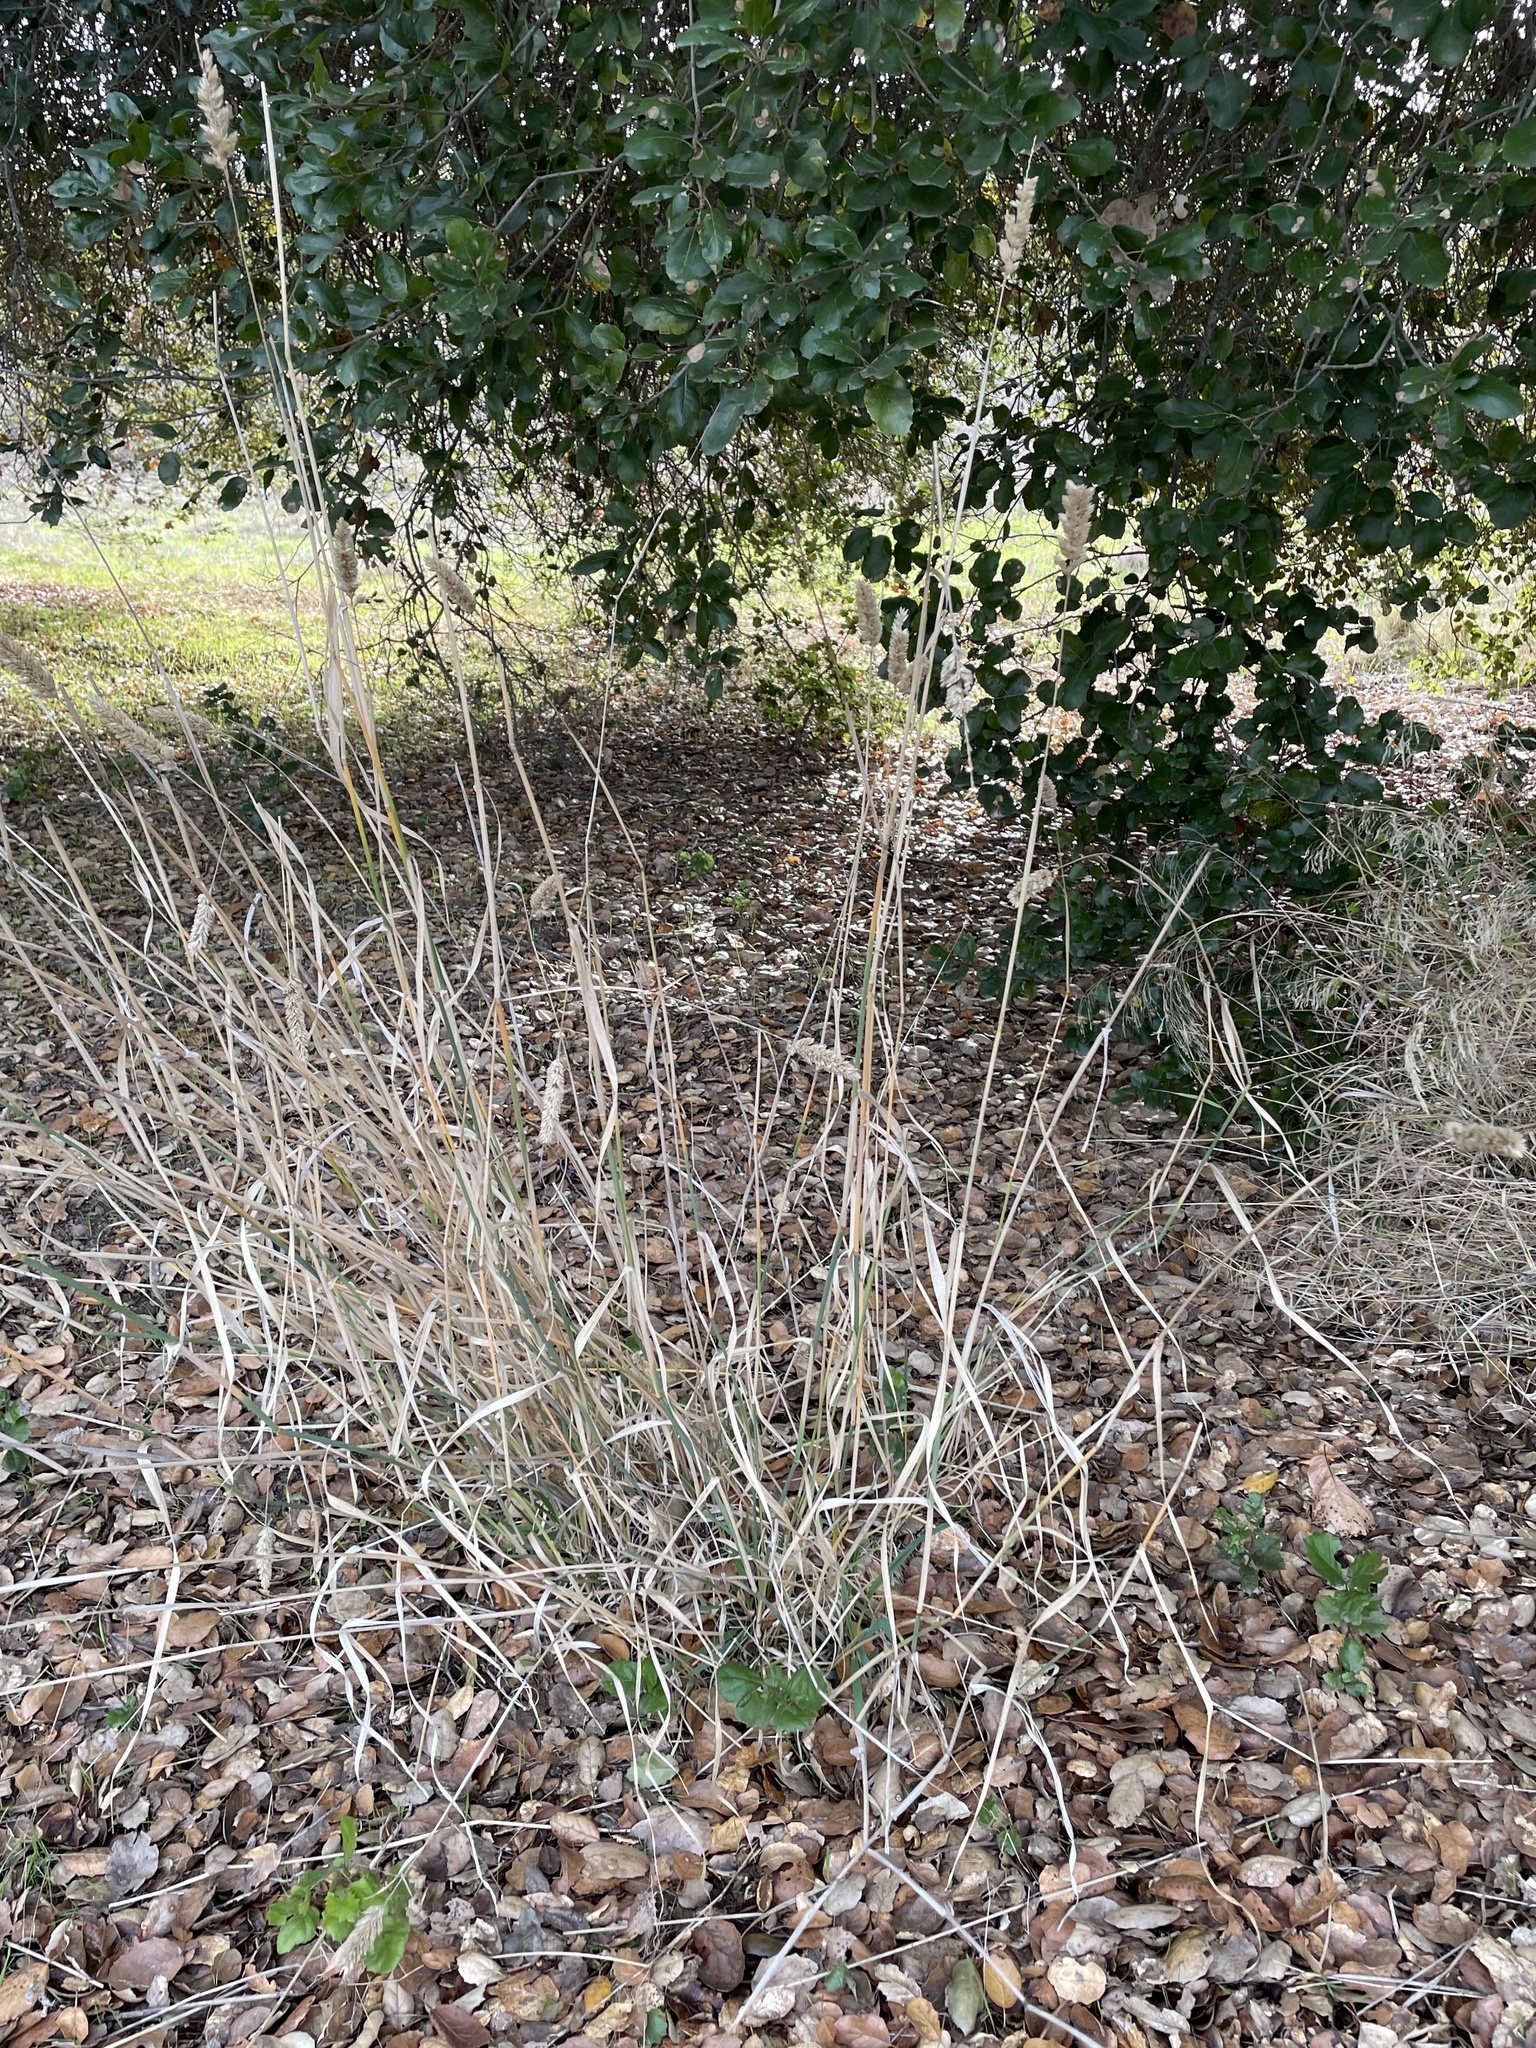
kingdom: Plantae
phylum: Tracheophyta
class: Liliopsida
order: Poales
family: Poaceae
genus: Phalaris
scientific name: Phalaris aquatica
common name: Bulbous canary-grass
